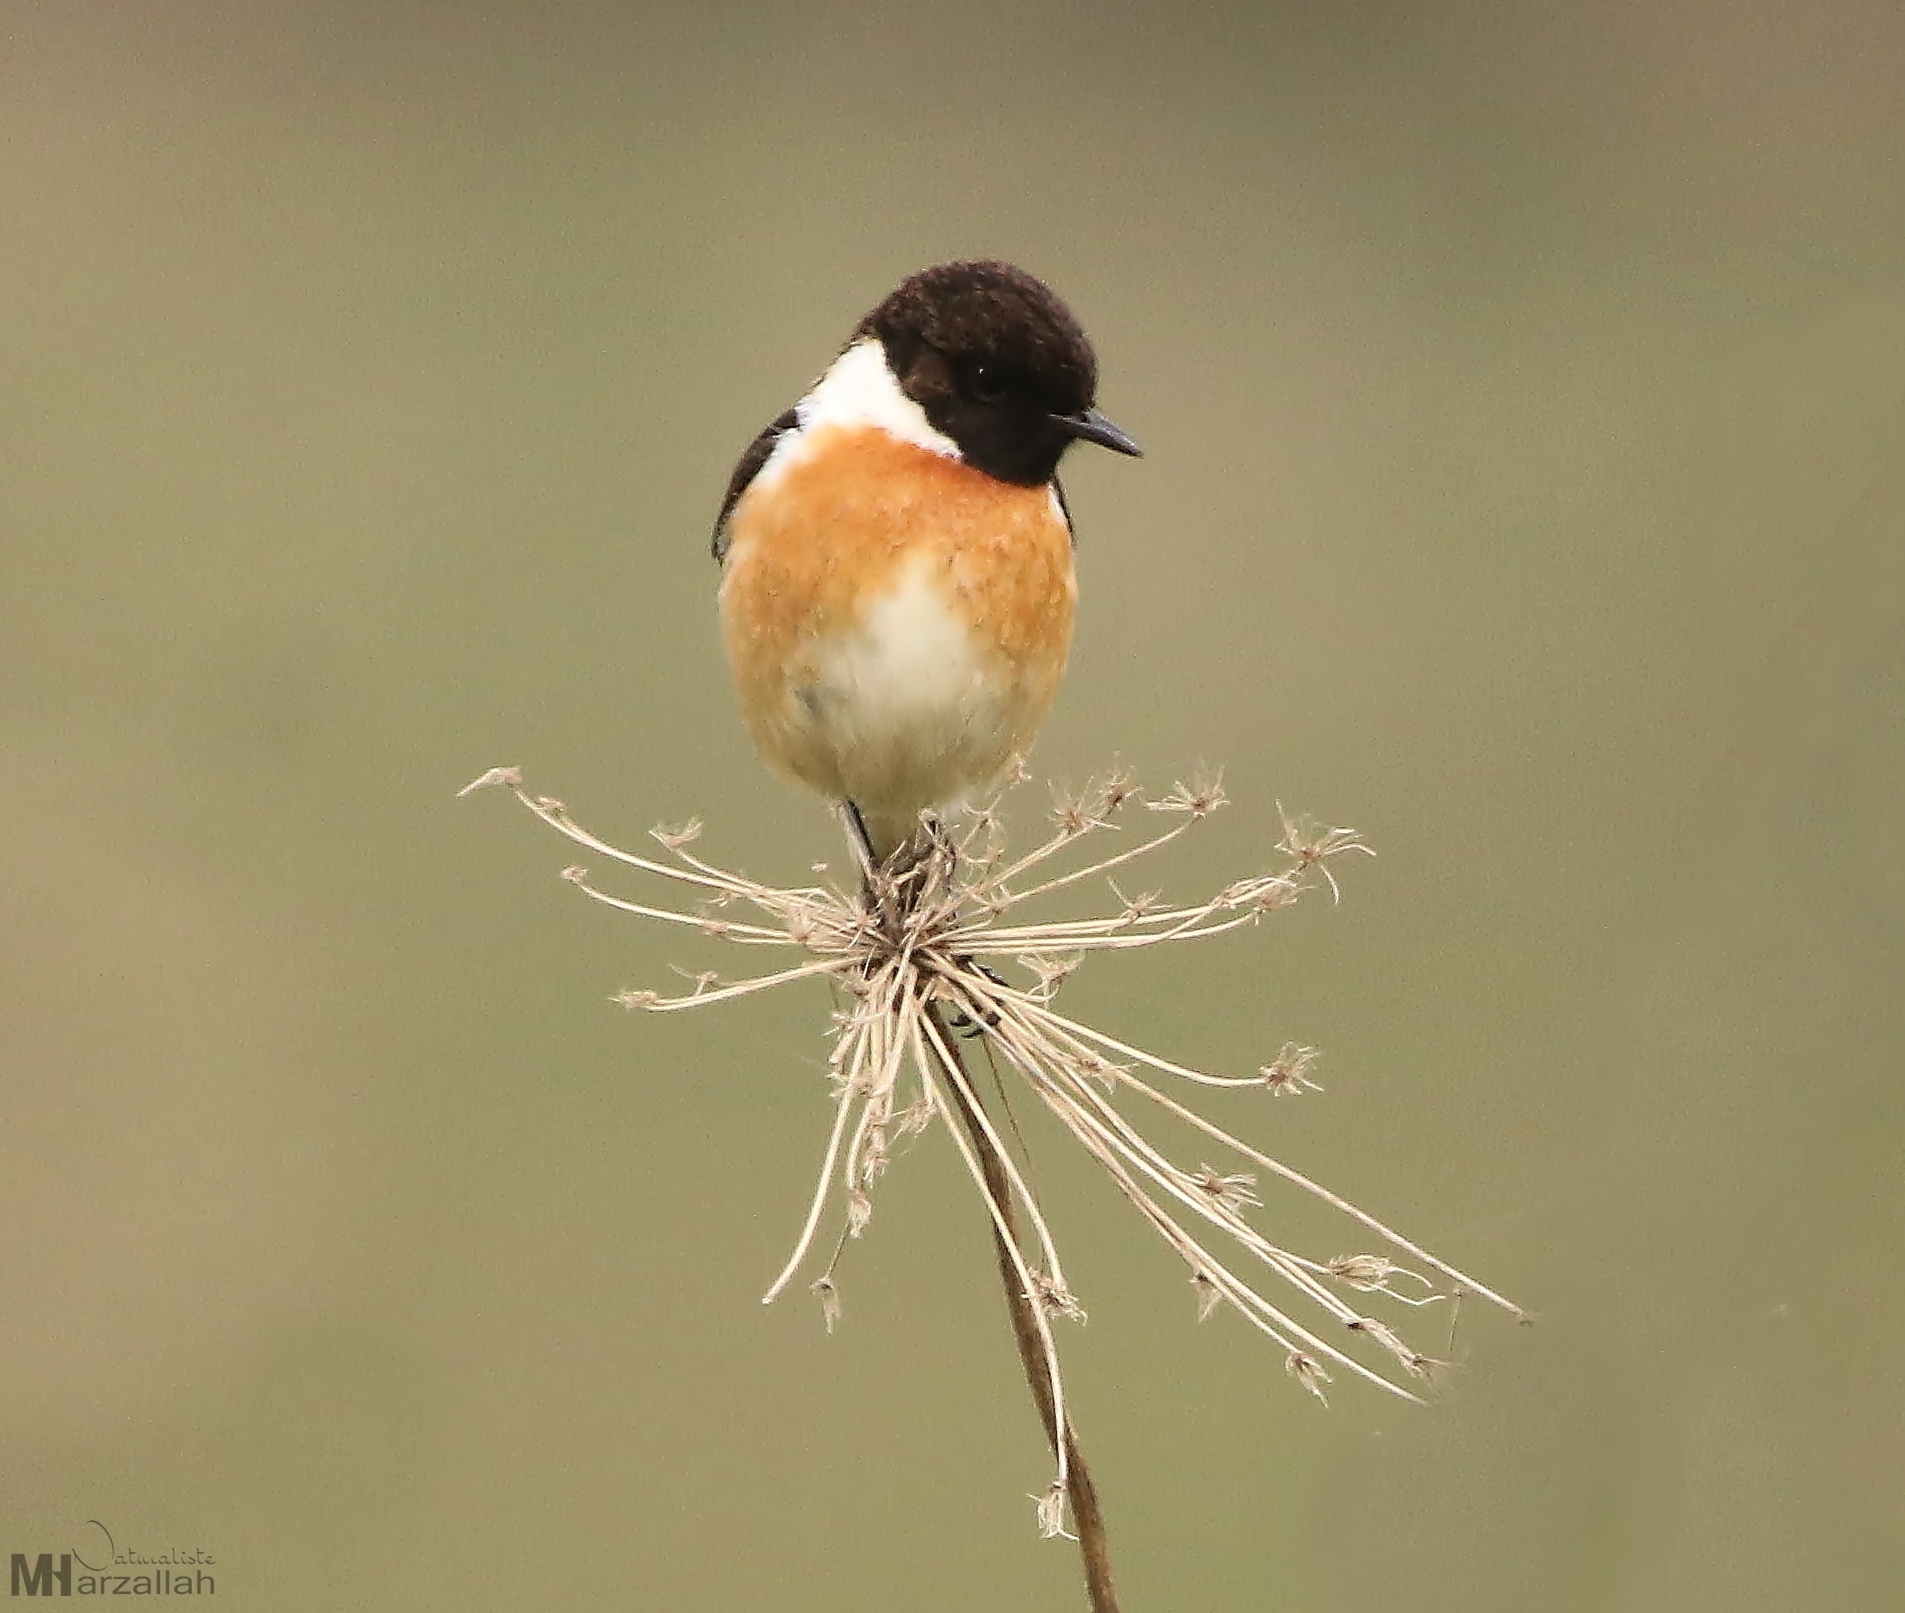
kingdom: Animalia
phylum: Chordata
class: Aves
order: Passeriformes
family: Muscicapidae
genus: Saxicola
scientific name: Saxicola rubicola
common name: European stonechat
